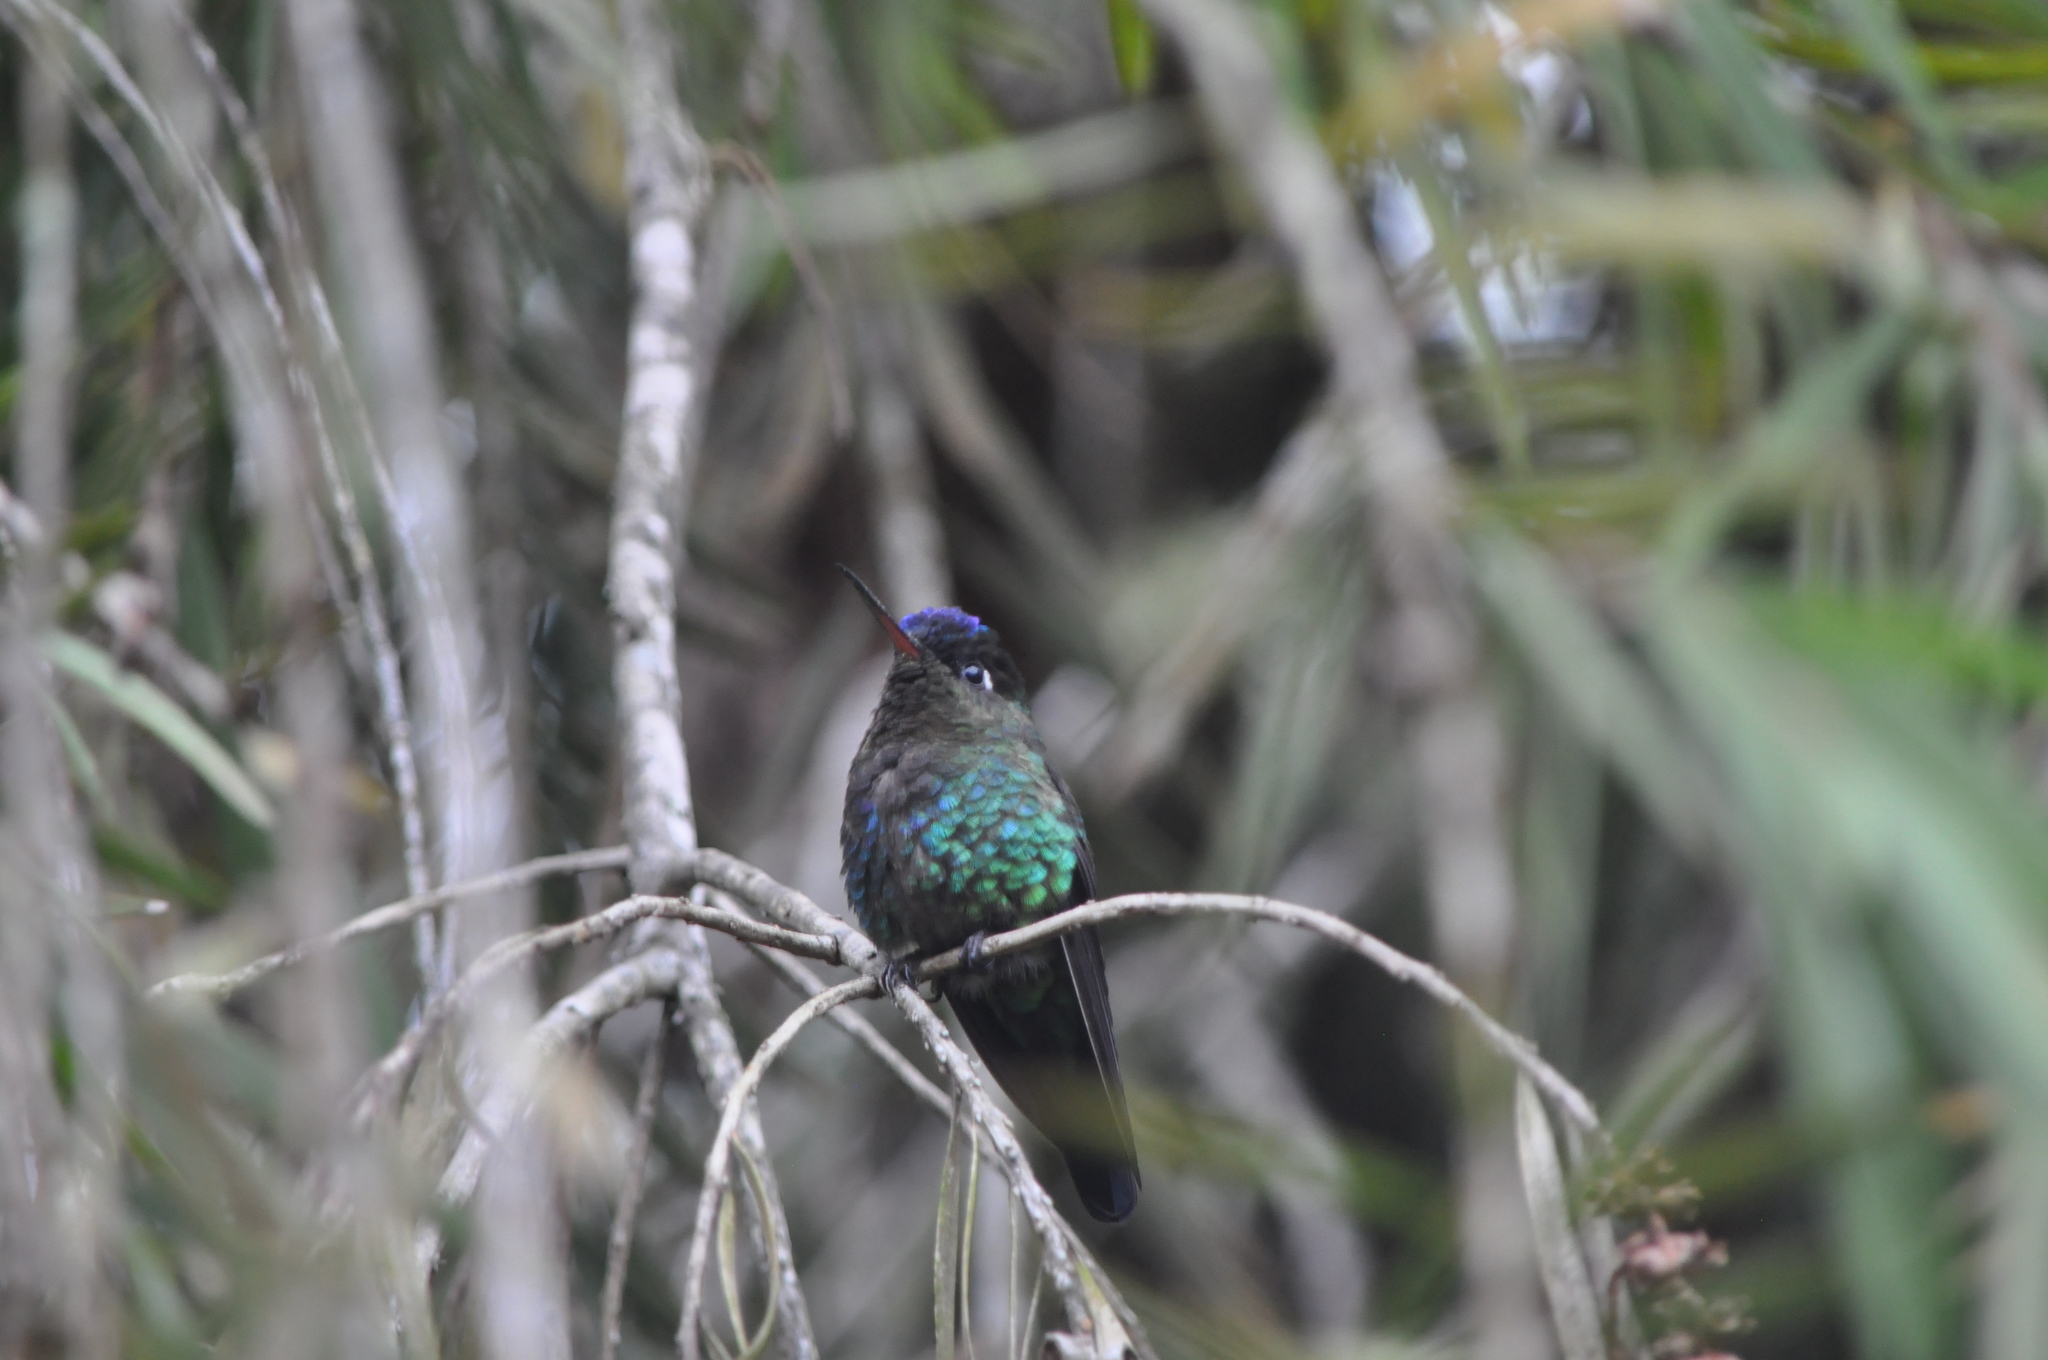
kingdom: Animalia
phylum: Chordata
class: Aves
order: Apodiformes
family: Trochilidae
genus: Panterpe
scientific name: Panterpe insignis
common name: Fiery-throated hummingbird
